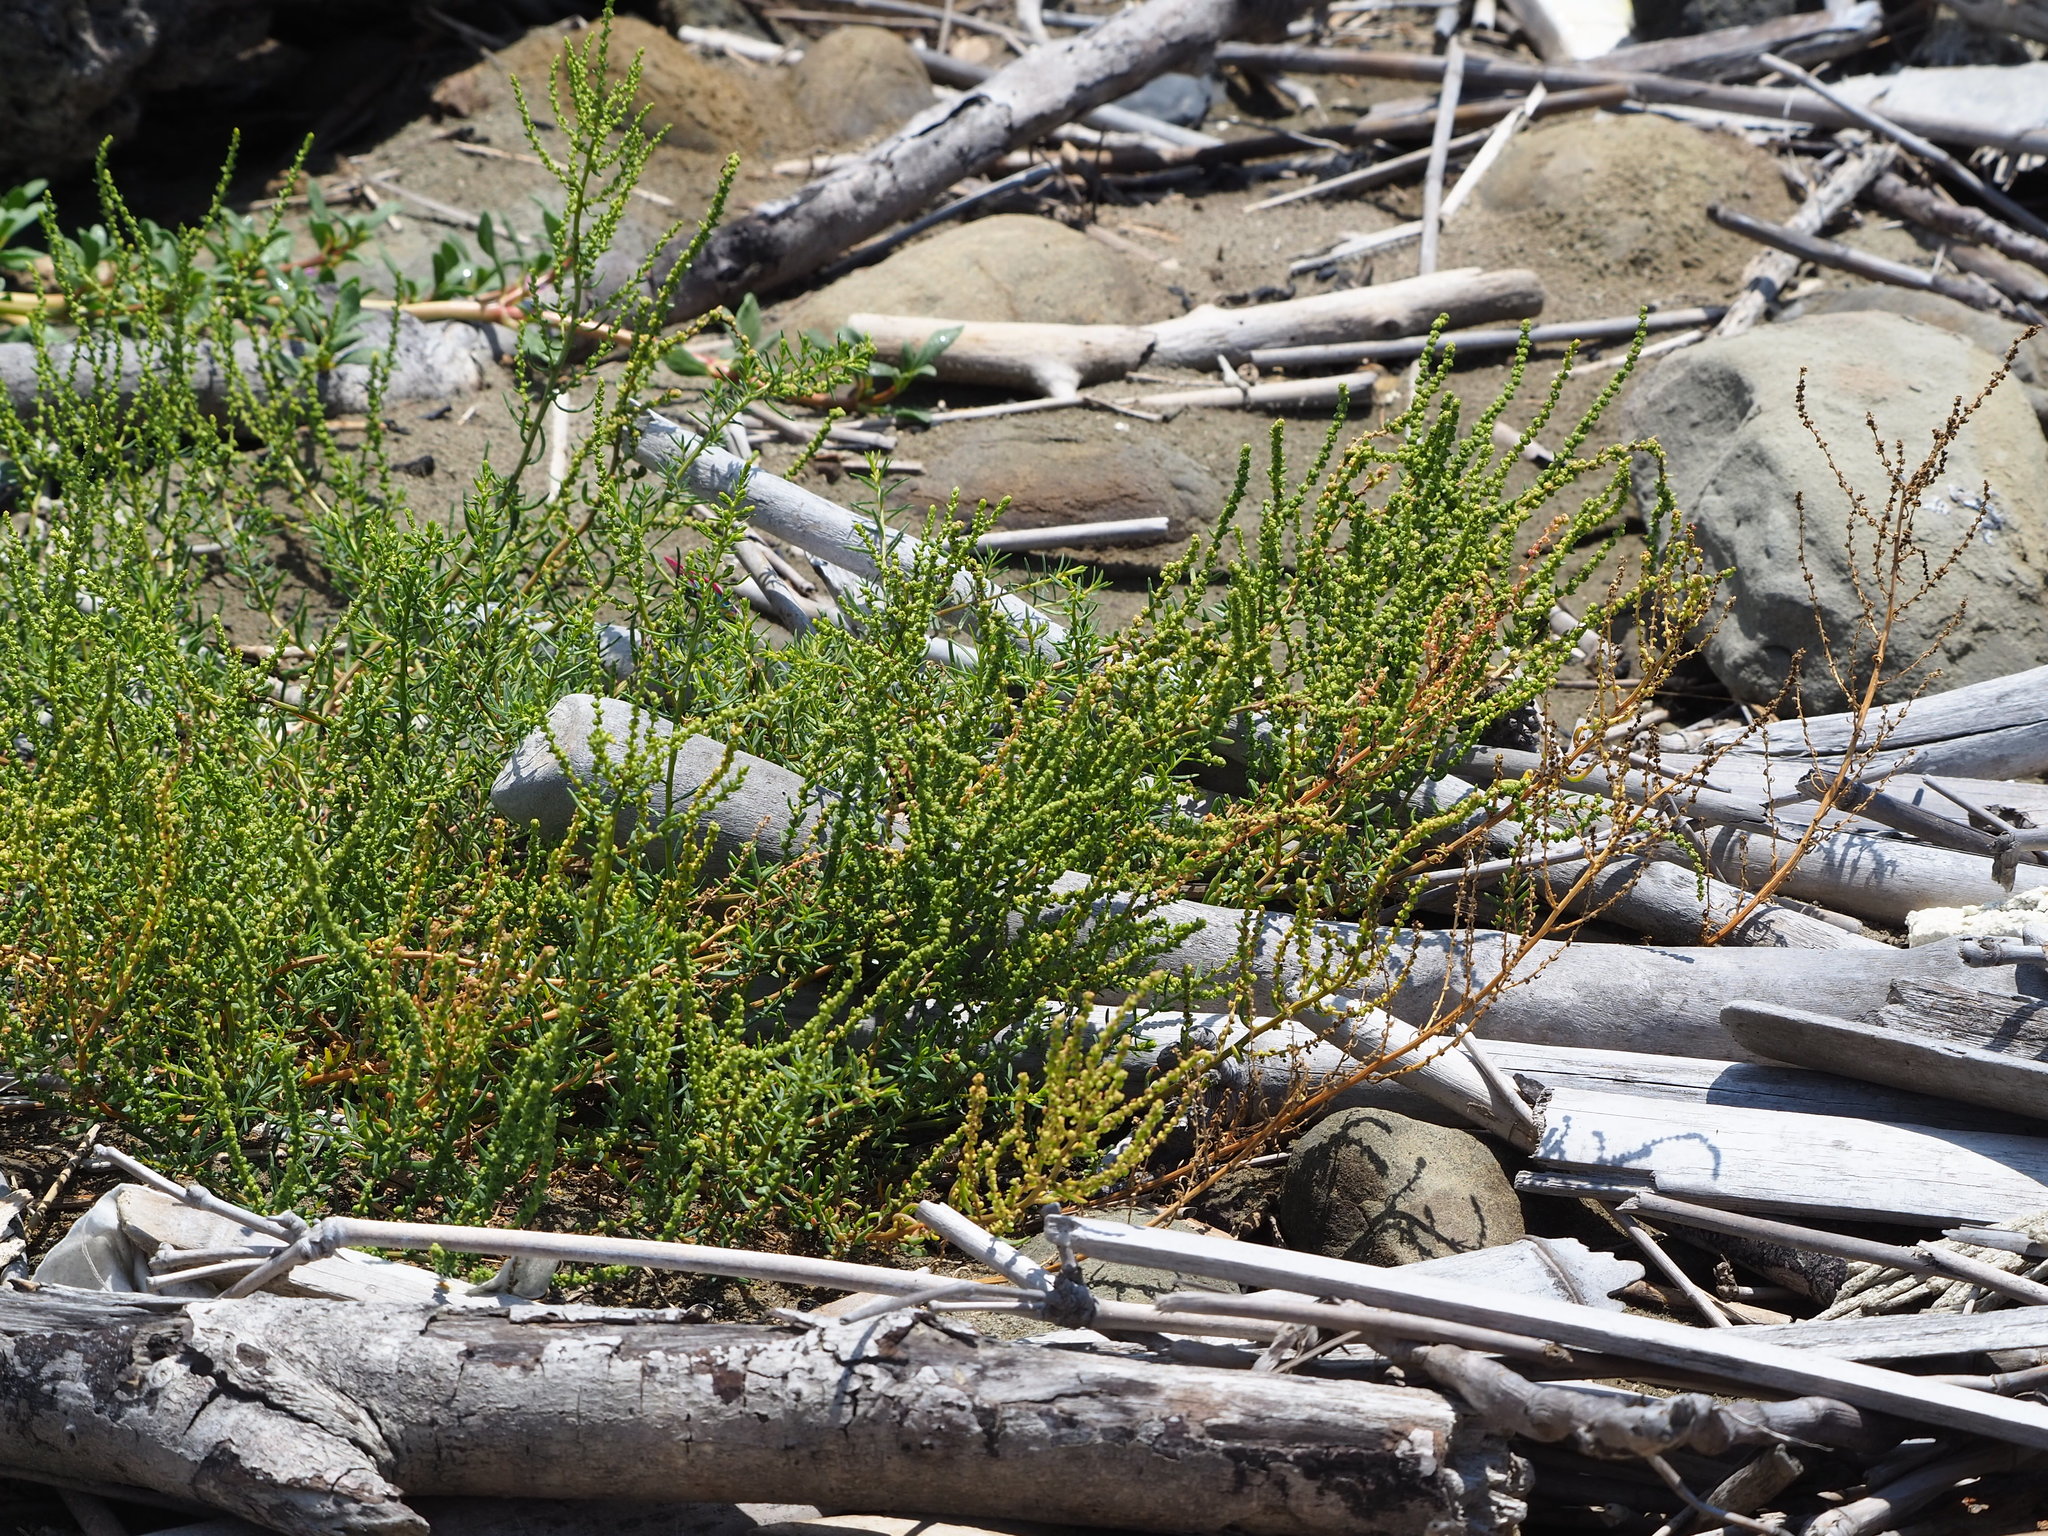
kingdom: Plantae
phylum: Tracheophyta
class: Magnoliopsida
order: Caryophyllales
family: Amaranthaceae
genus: Suaeda
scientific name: Suaeda maritima
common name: Annual sea-blite
